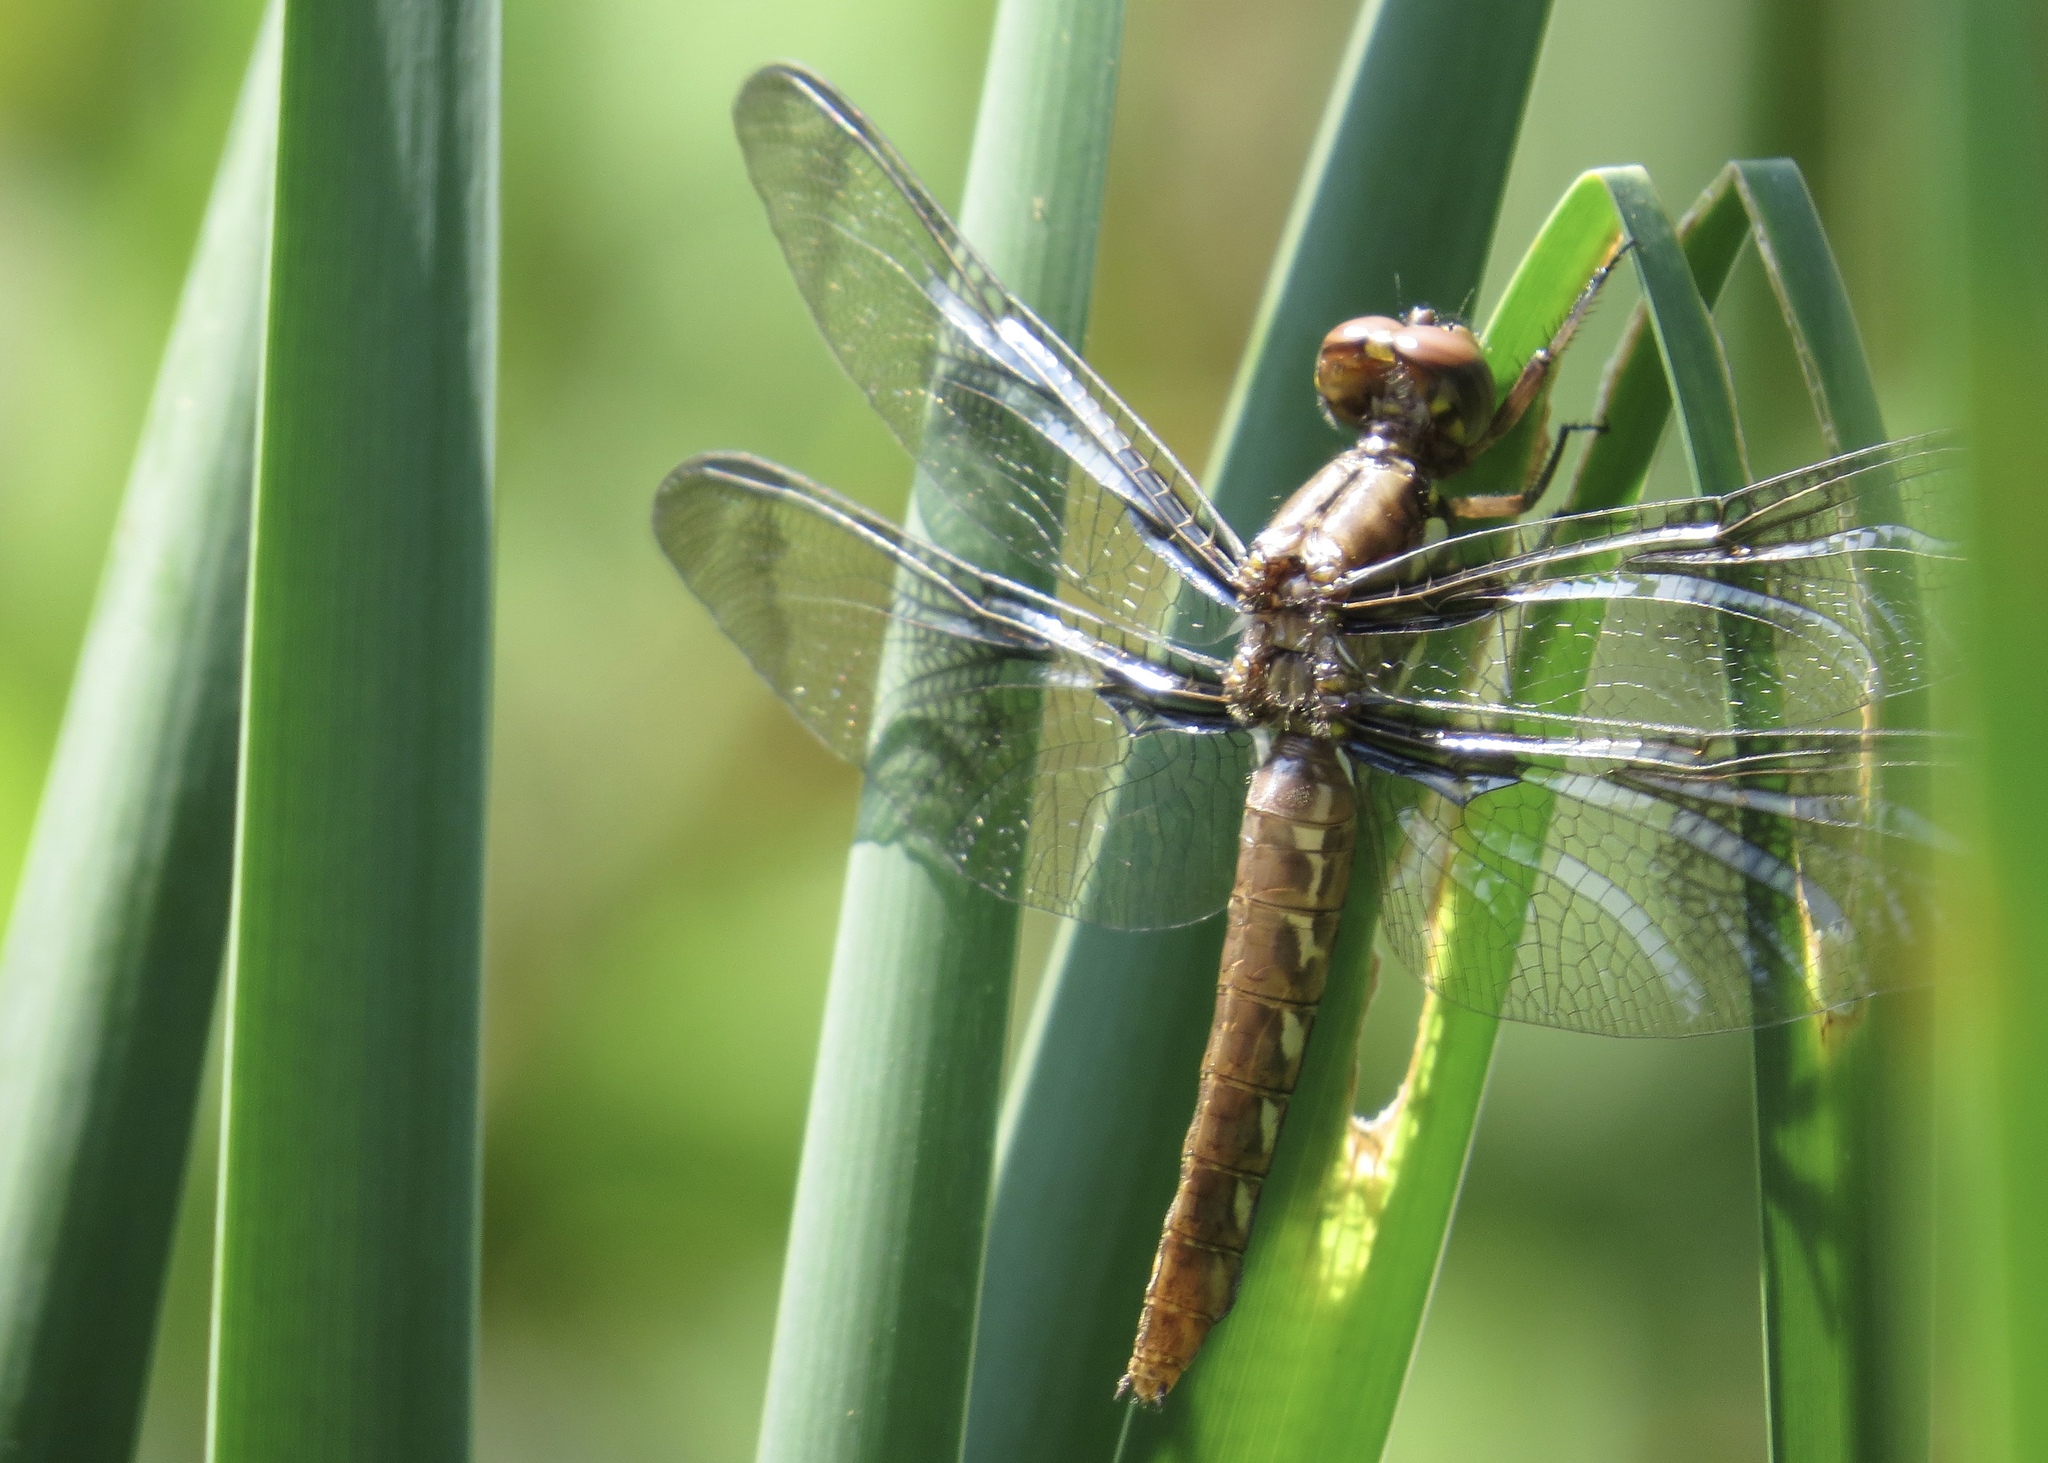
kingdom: Animalia
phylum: Arthropoda
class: Insecta
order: Odonata
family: Libellulidae
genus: Plathemis
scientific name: Plathemis lydia
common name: Common whitetail
